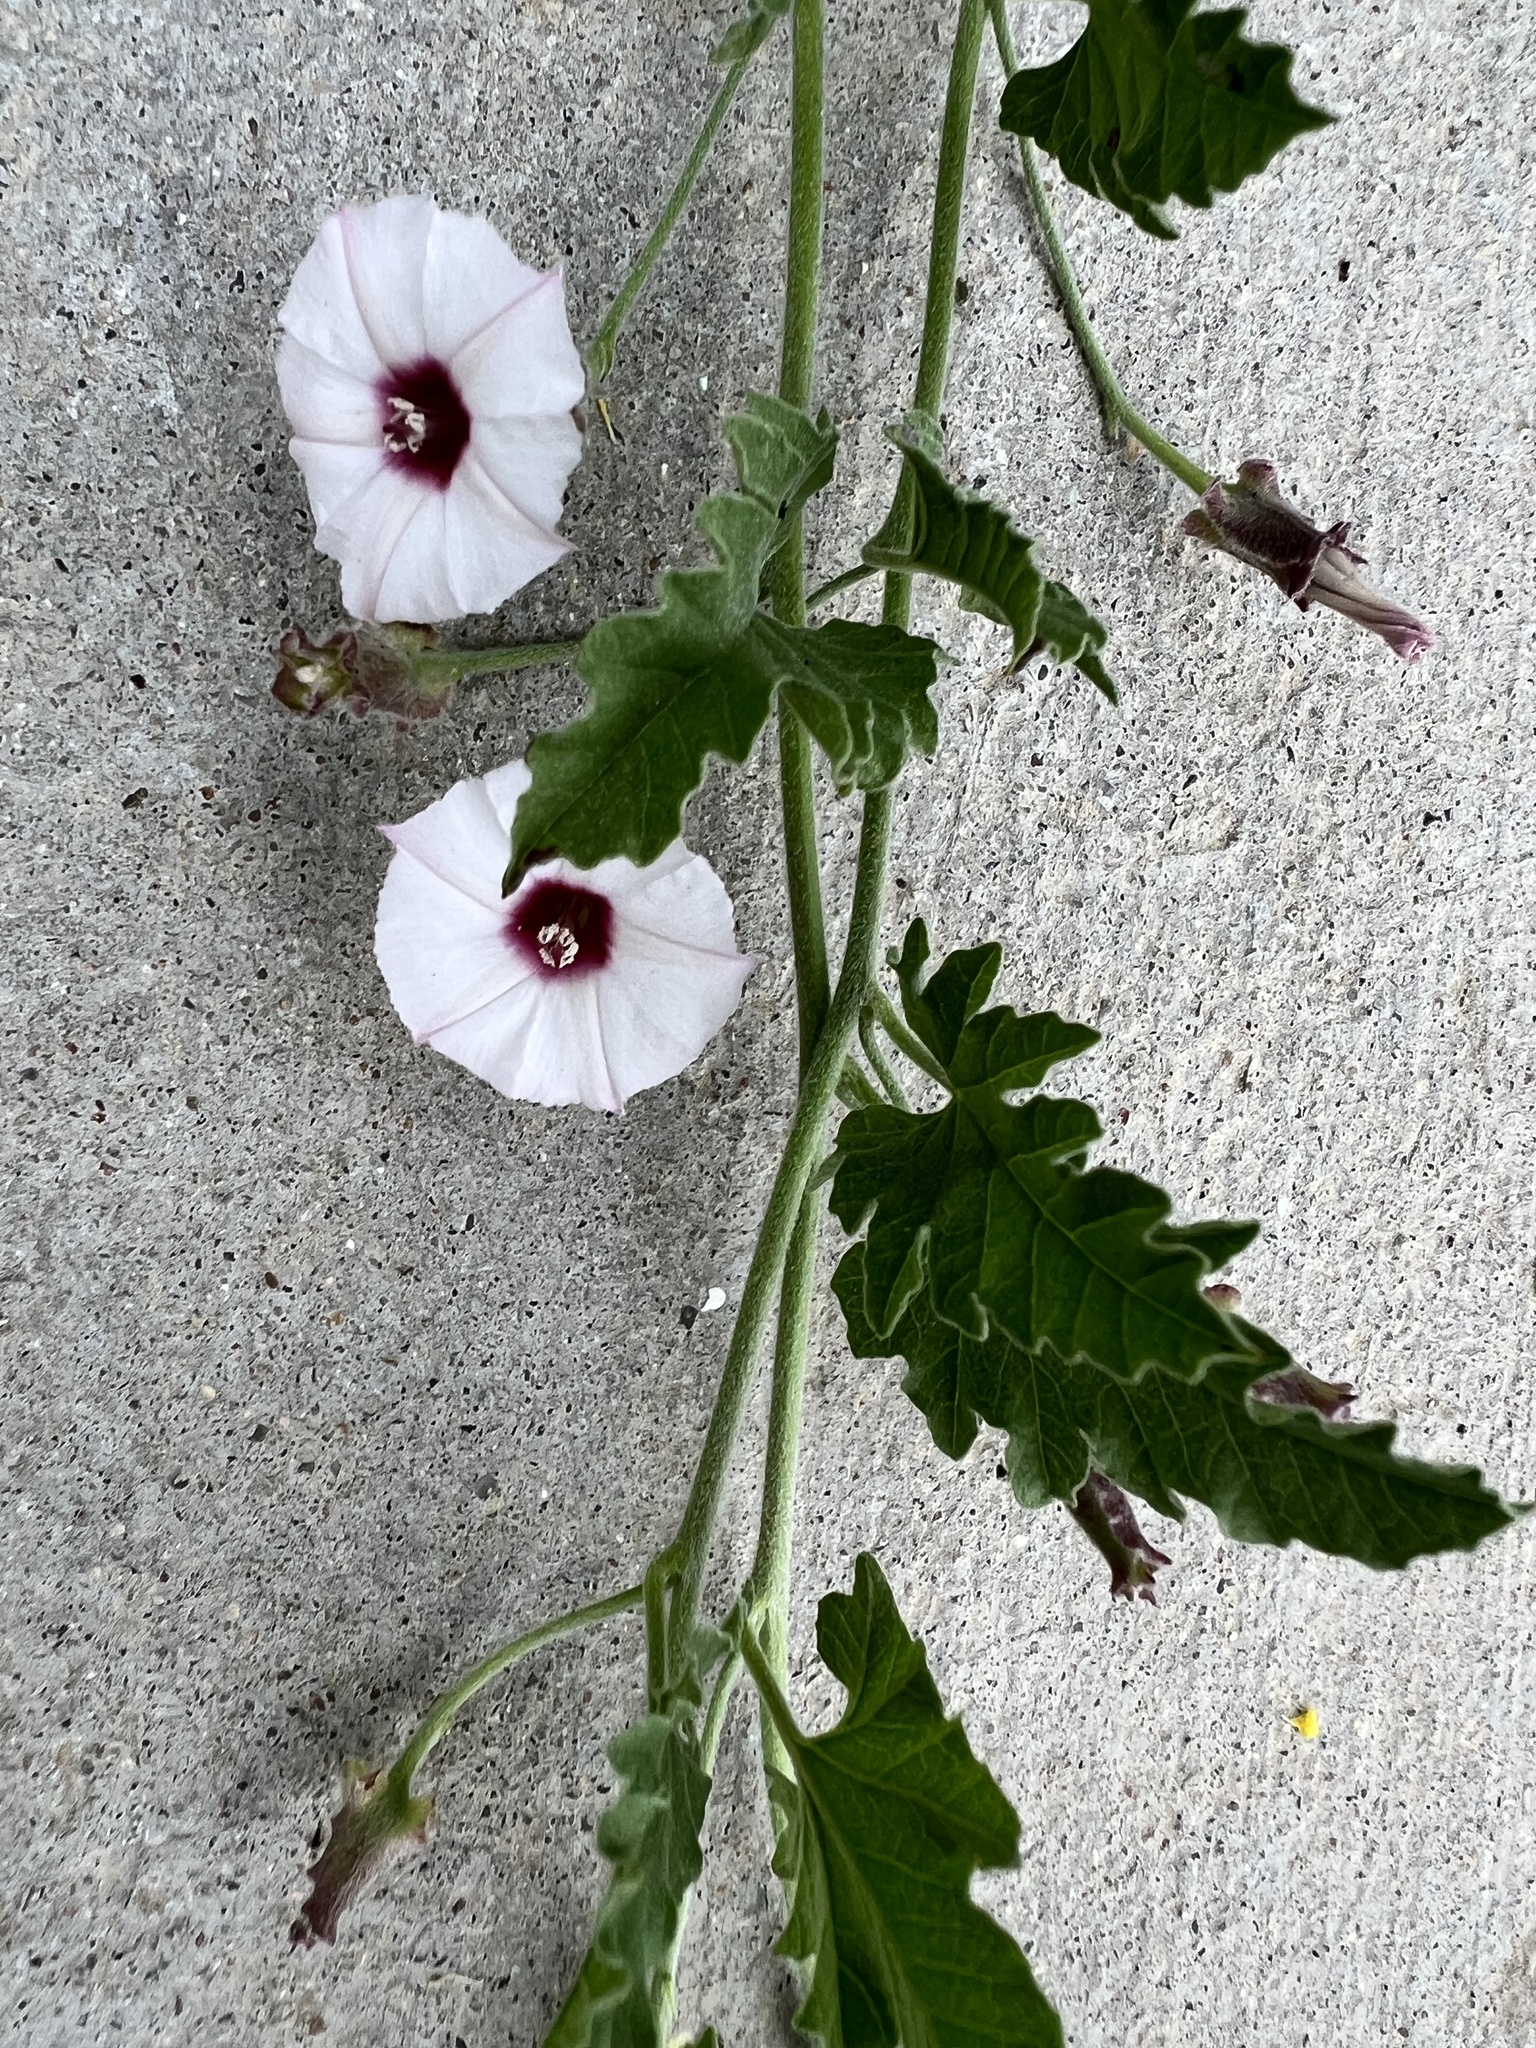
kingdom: Plantae
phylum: Tracheophyta
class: Magnoliopsida
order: Solanales
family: Convolvulaceae
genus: Convolvulus
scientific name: Convolvulus equitans
